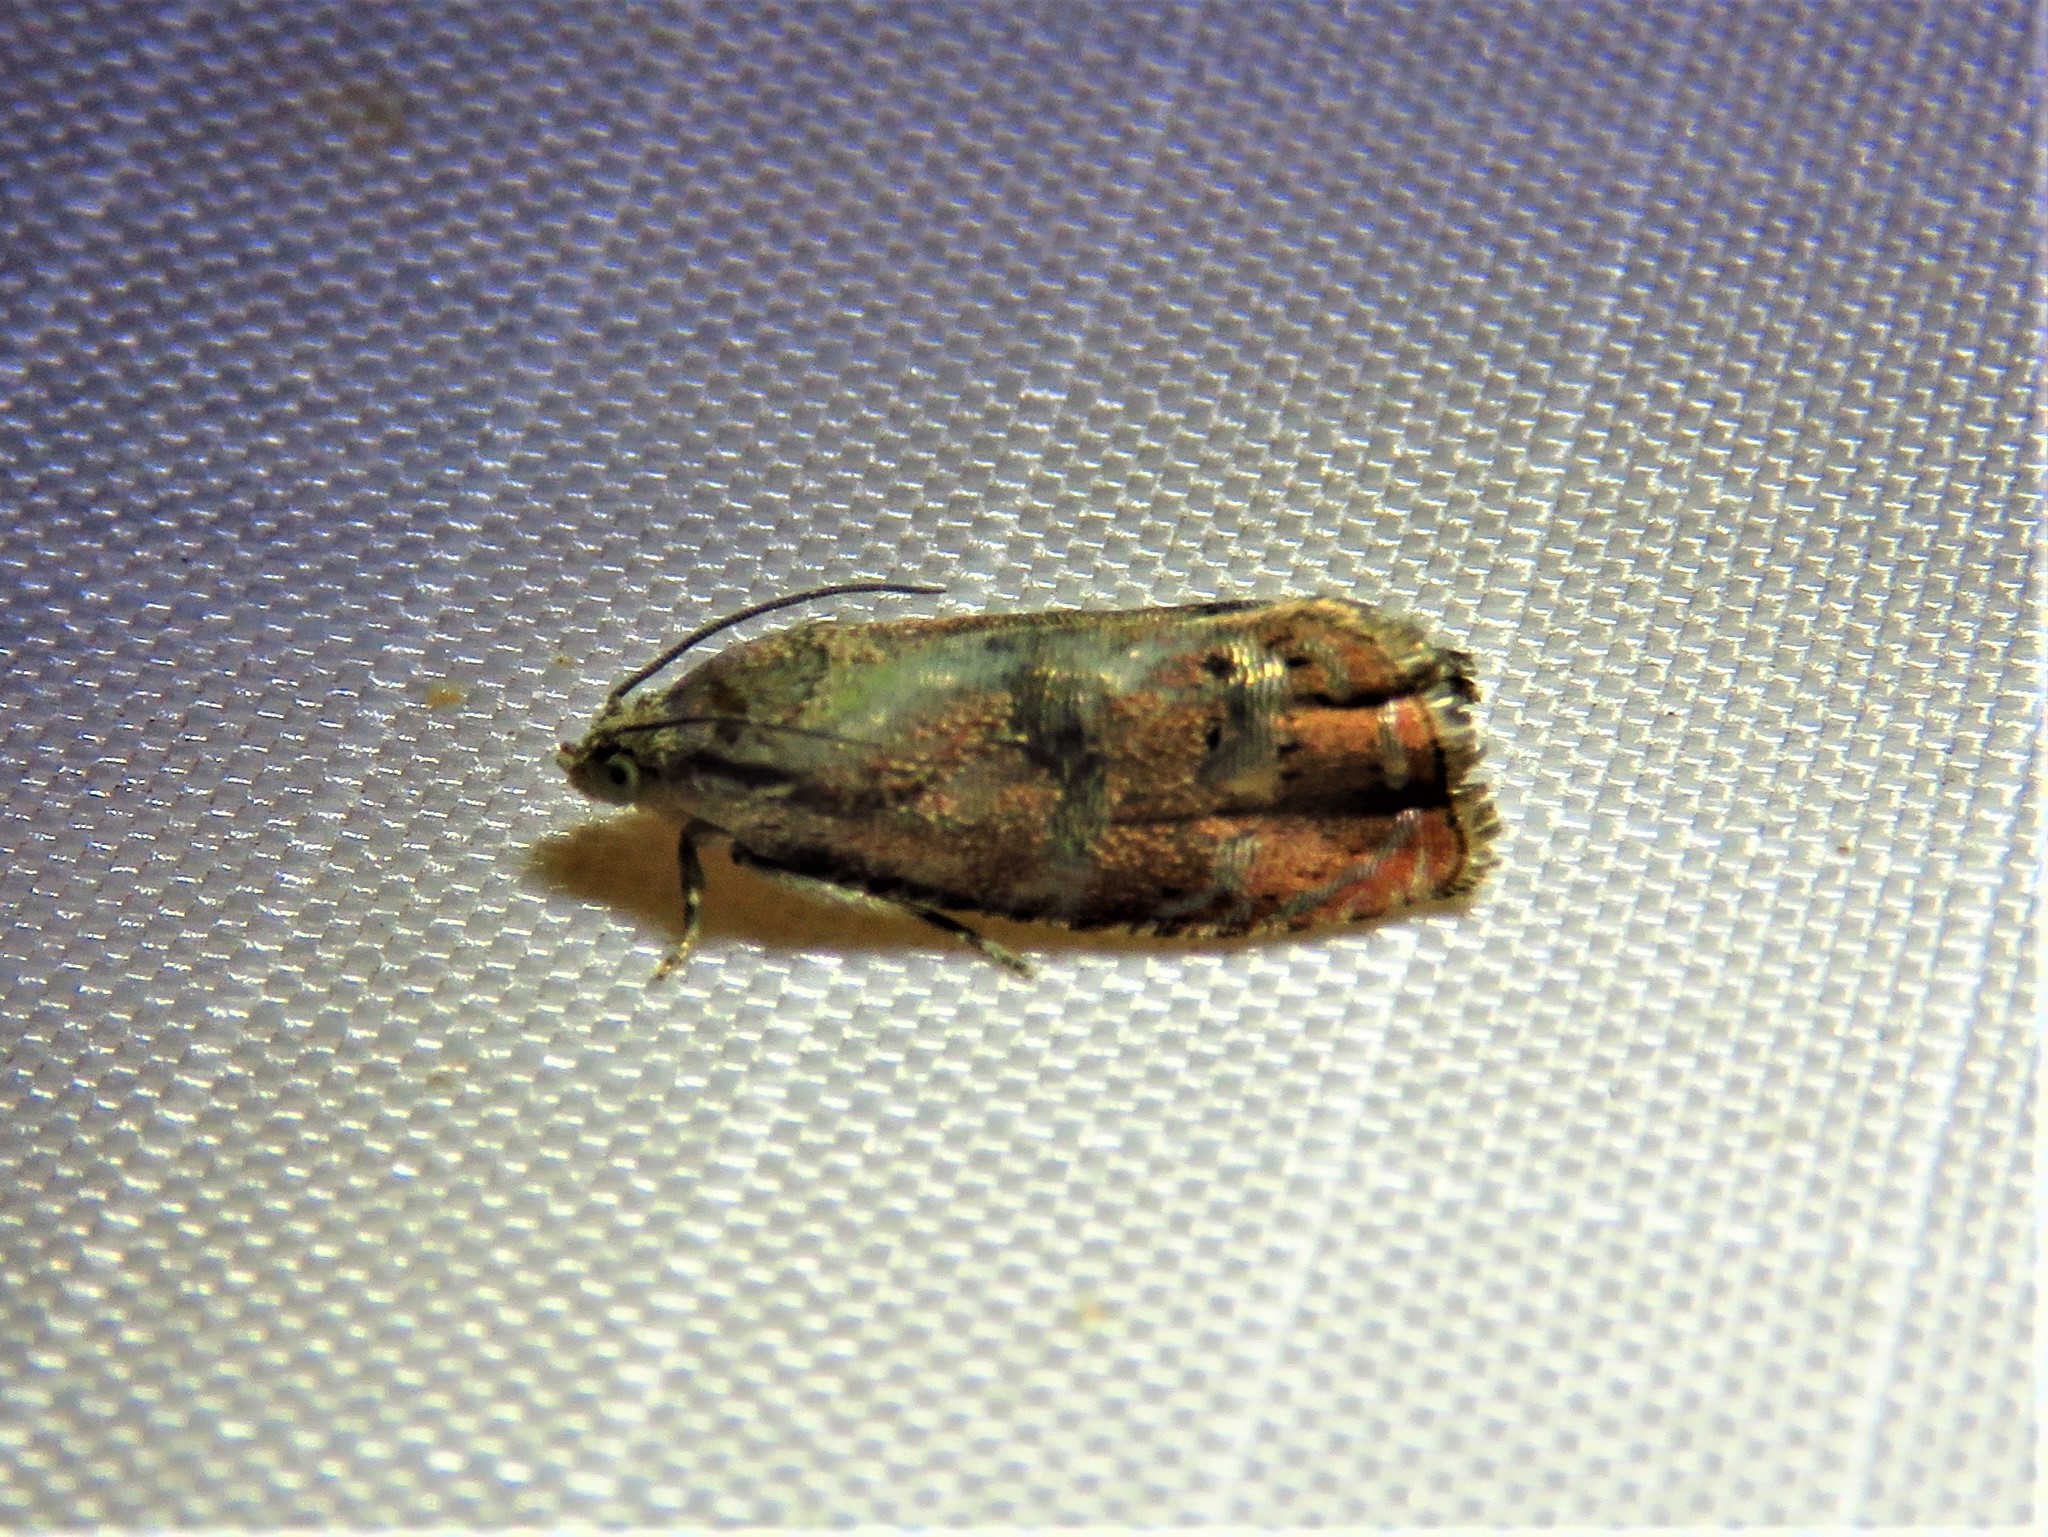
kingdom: Animalia
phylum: Arthropoda
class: Insecta
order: Lepidoptera
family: Tortricidae
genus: Cydia
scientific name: Cydia latiferreana
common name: Filbertworm moth
